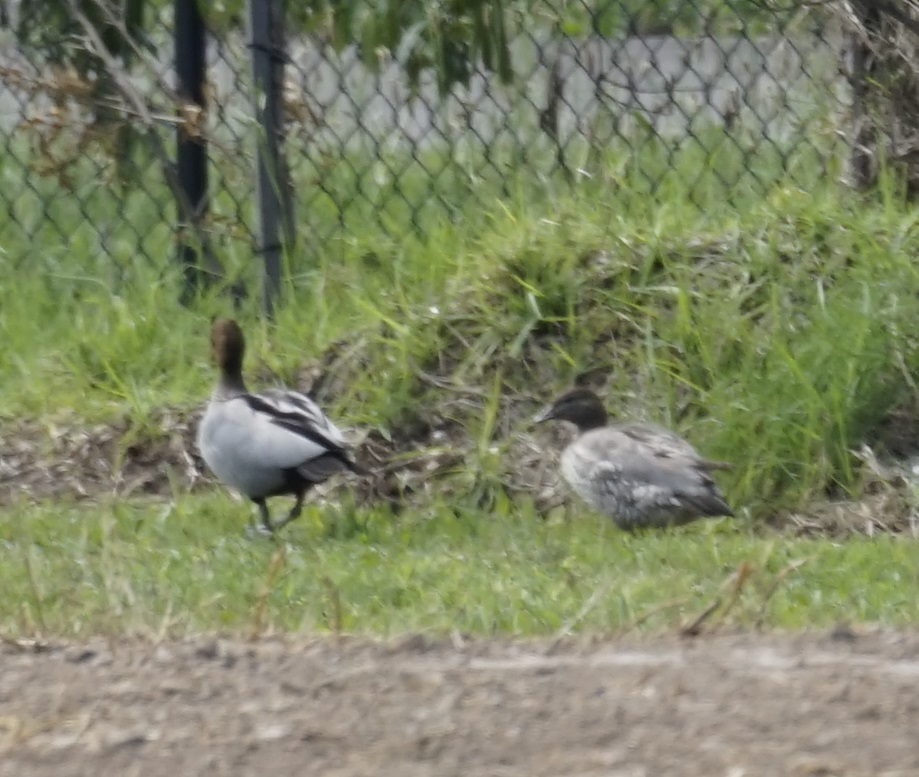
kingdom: Animalia
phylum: Chordata
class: Aves
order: Anseriformes
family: Anatidae
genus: Chenonetta
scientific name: Chenonetta jubata
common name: Maned duck
